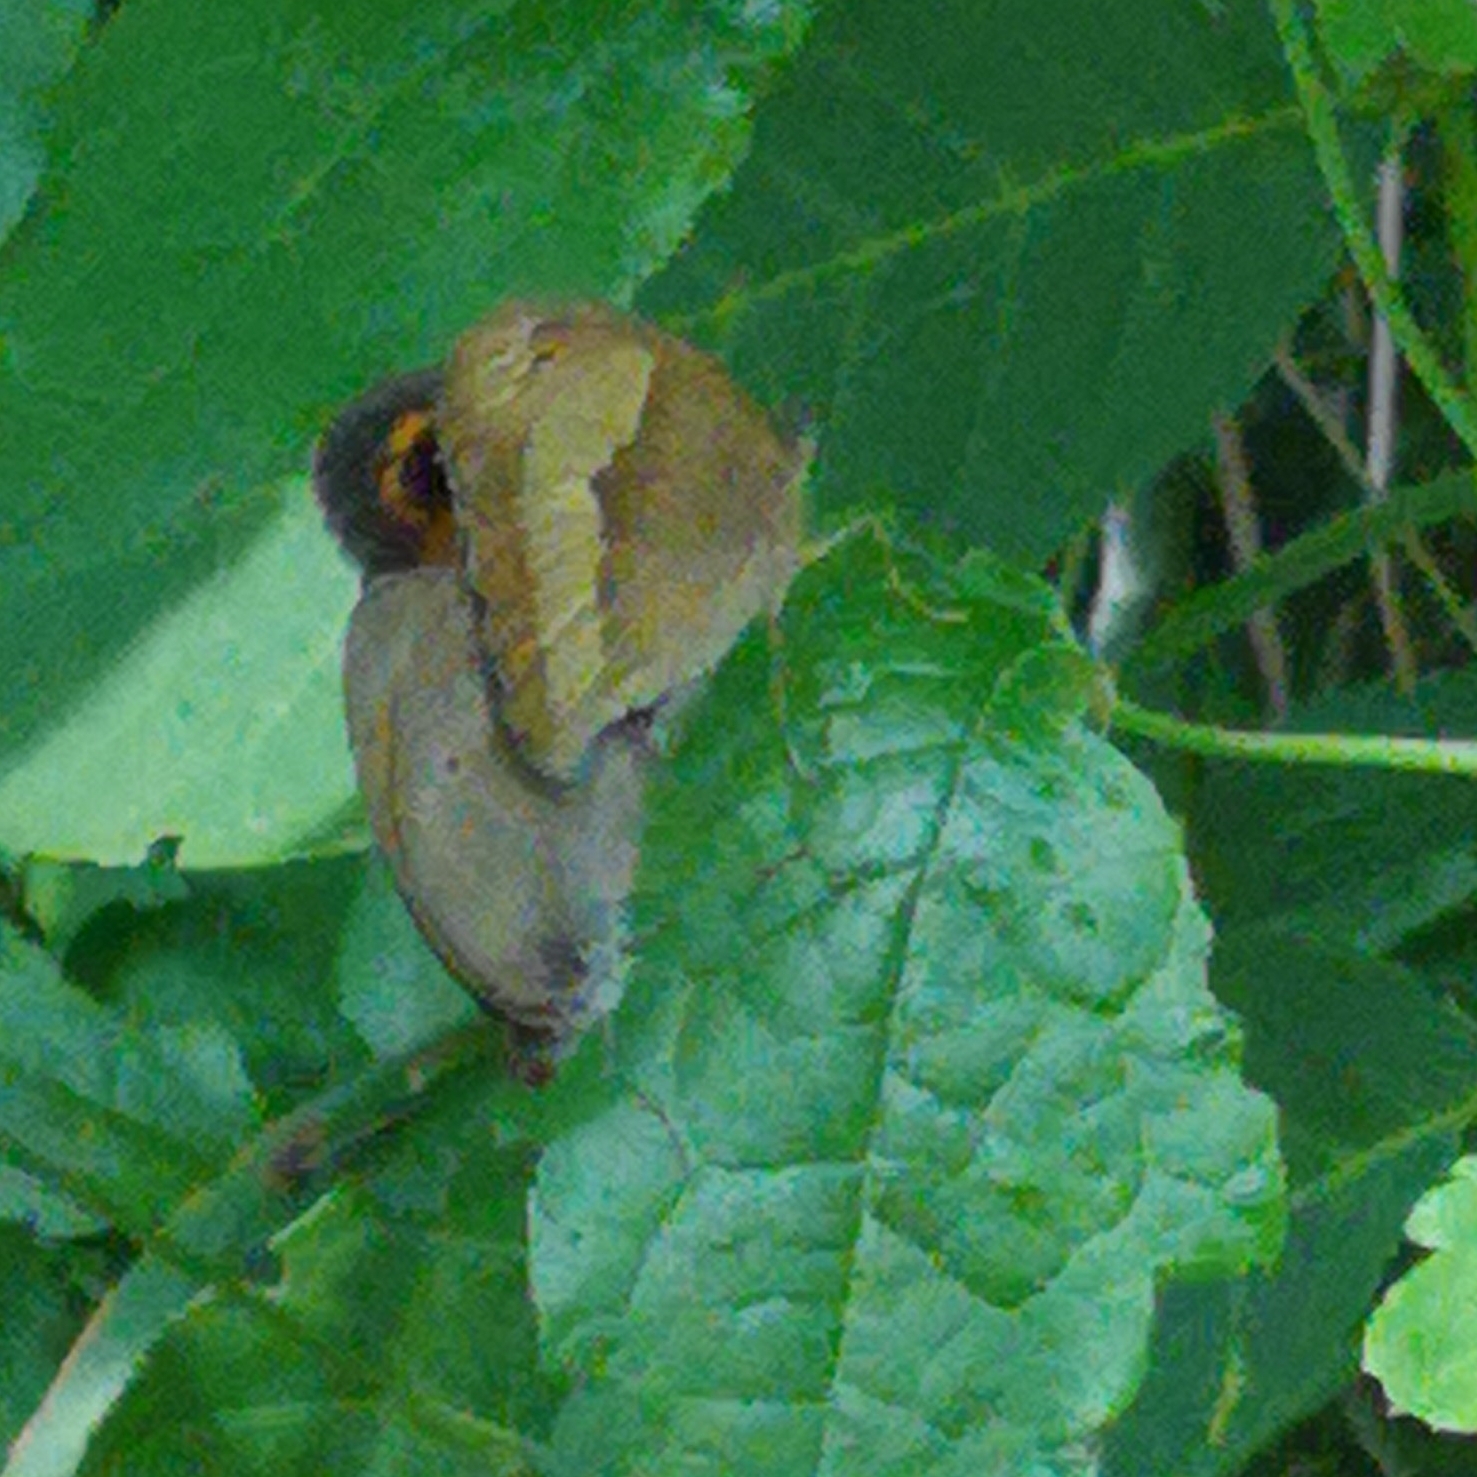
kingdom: Animalia
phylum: Arthropoda
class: Insecta
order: Lepidoptera
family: Nymphalidae
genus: Maniola
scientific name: Maniola jurtina
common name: Meadow brown
